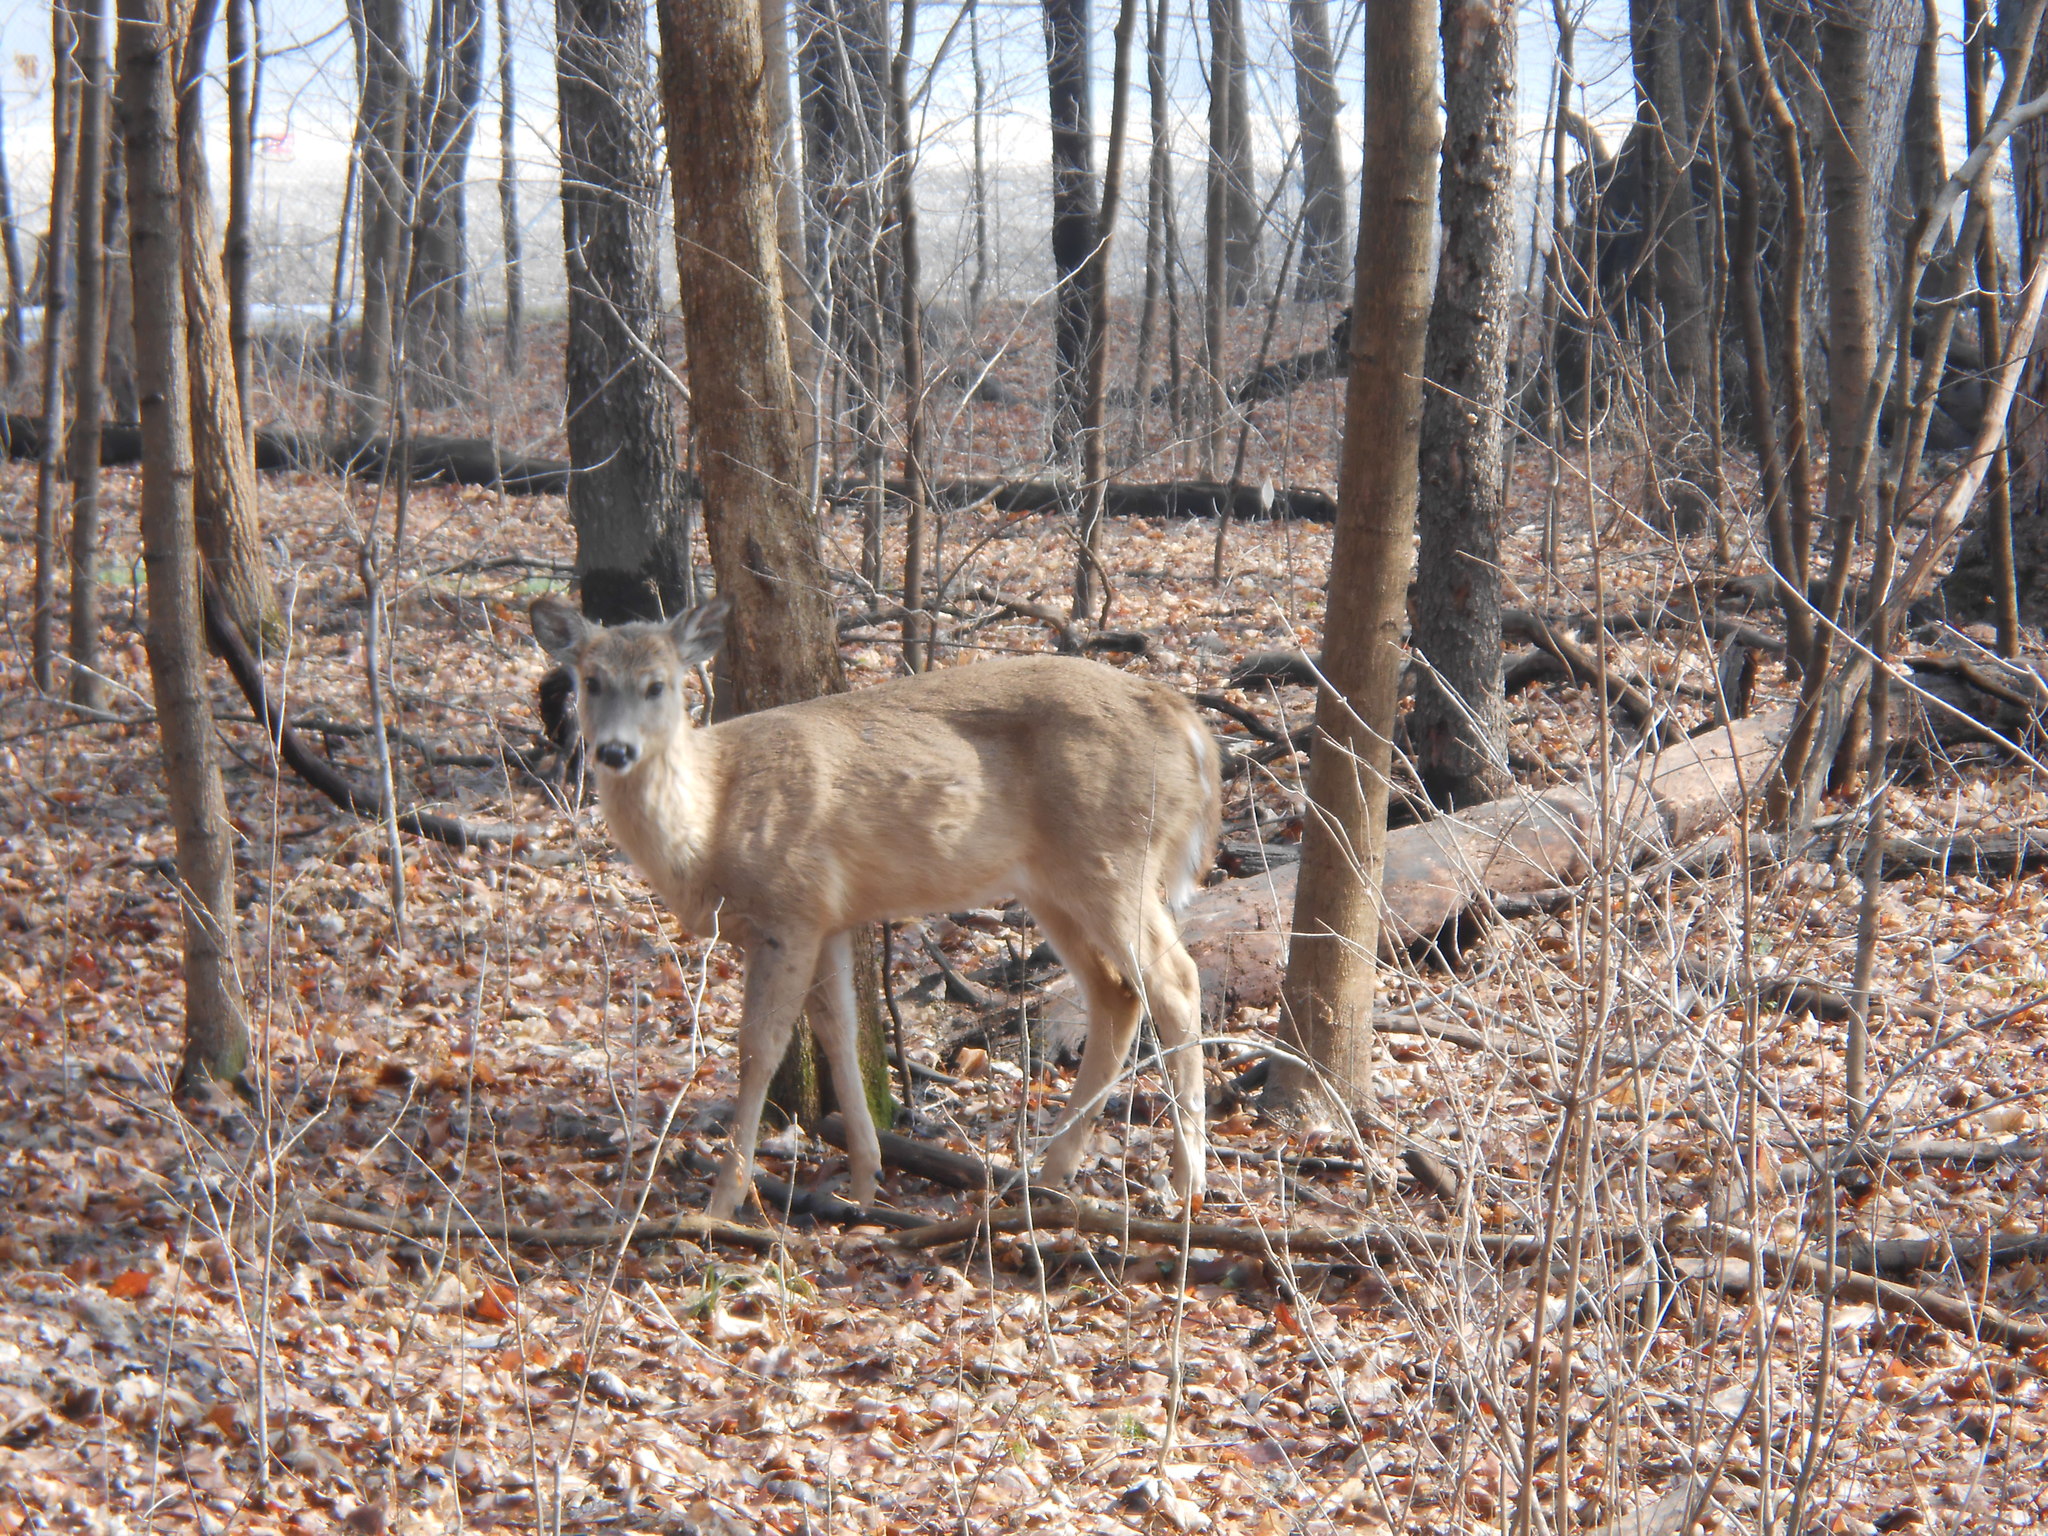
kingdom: Animalia
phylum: Chordata
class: Mammalia
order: Artiodactyla
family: Cervidae
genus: Odocoileus
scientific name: Odocoileus virginianus
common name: White-tailed deer
